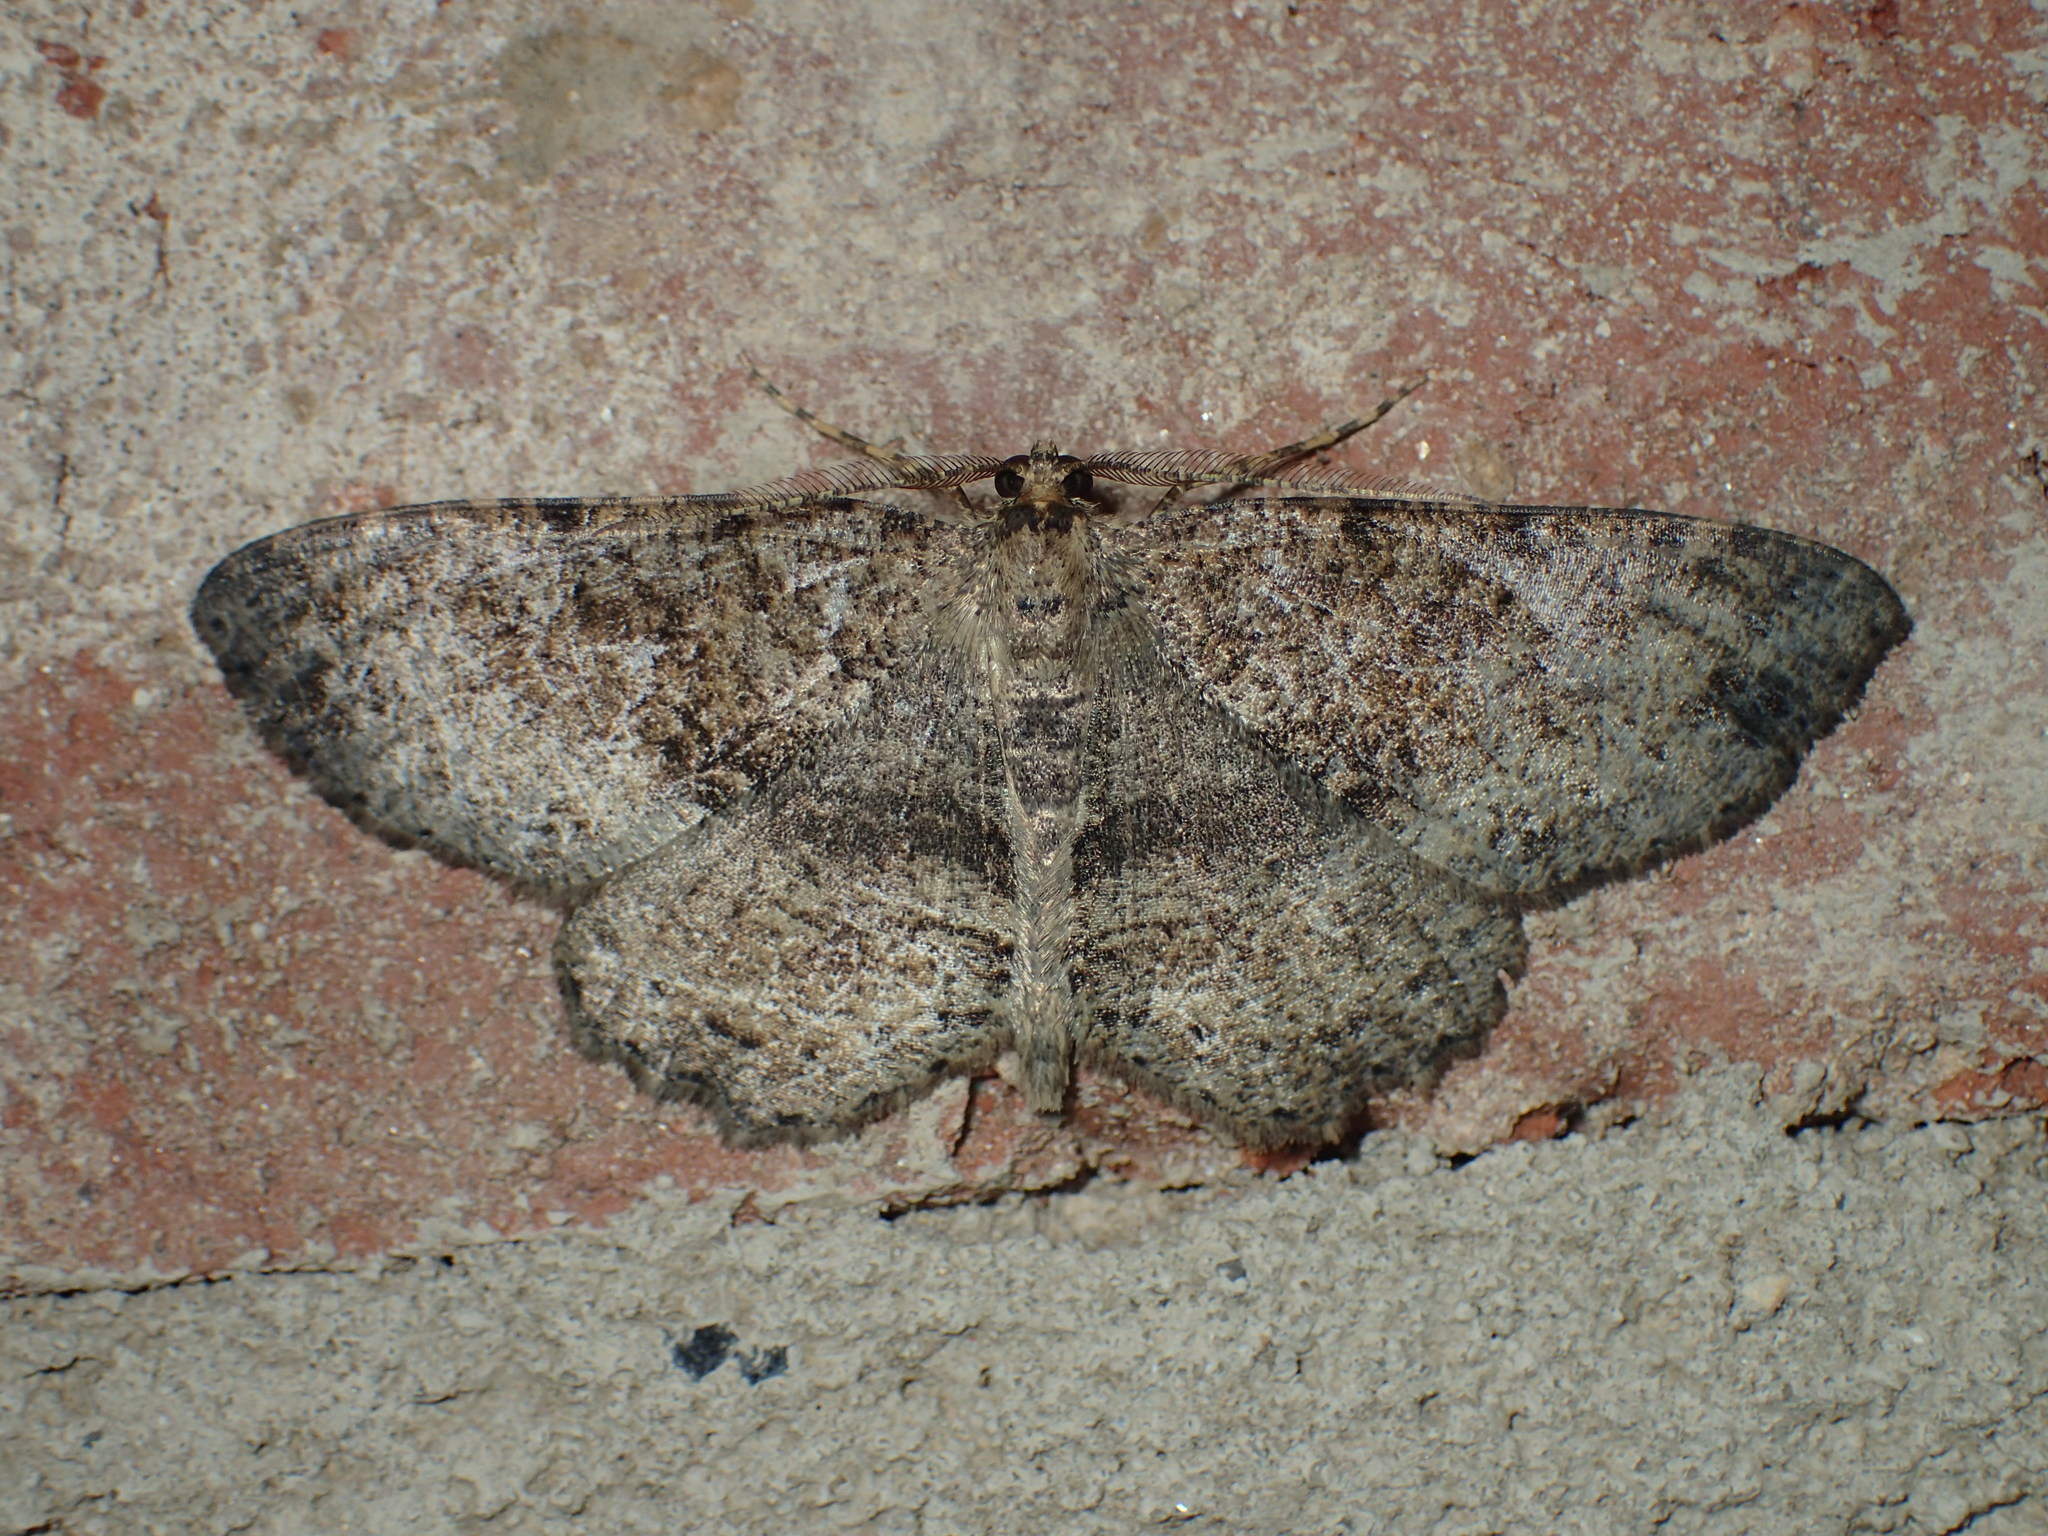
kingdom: Animalia
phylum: Arthropoda
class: Insecta
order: Lepidoptera
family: Geometridae
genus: Melanolophia
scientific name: Melanolophia canadaria
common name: Canadian melanolophia
